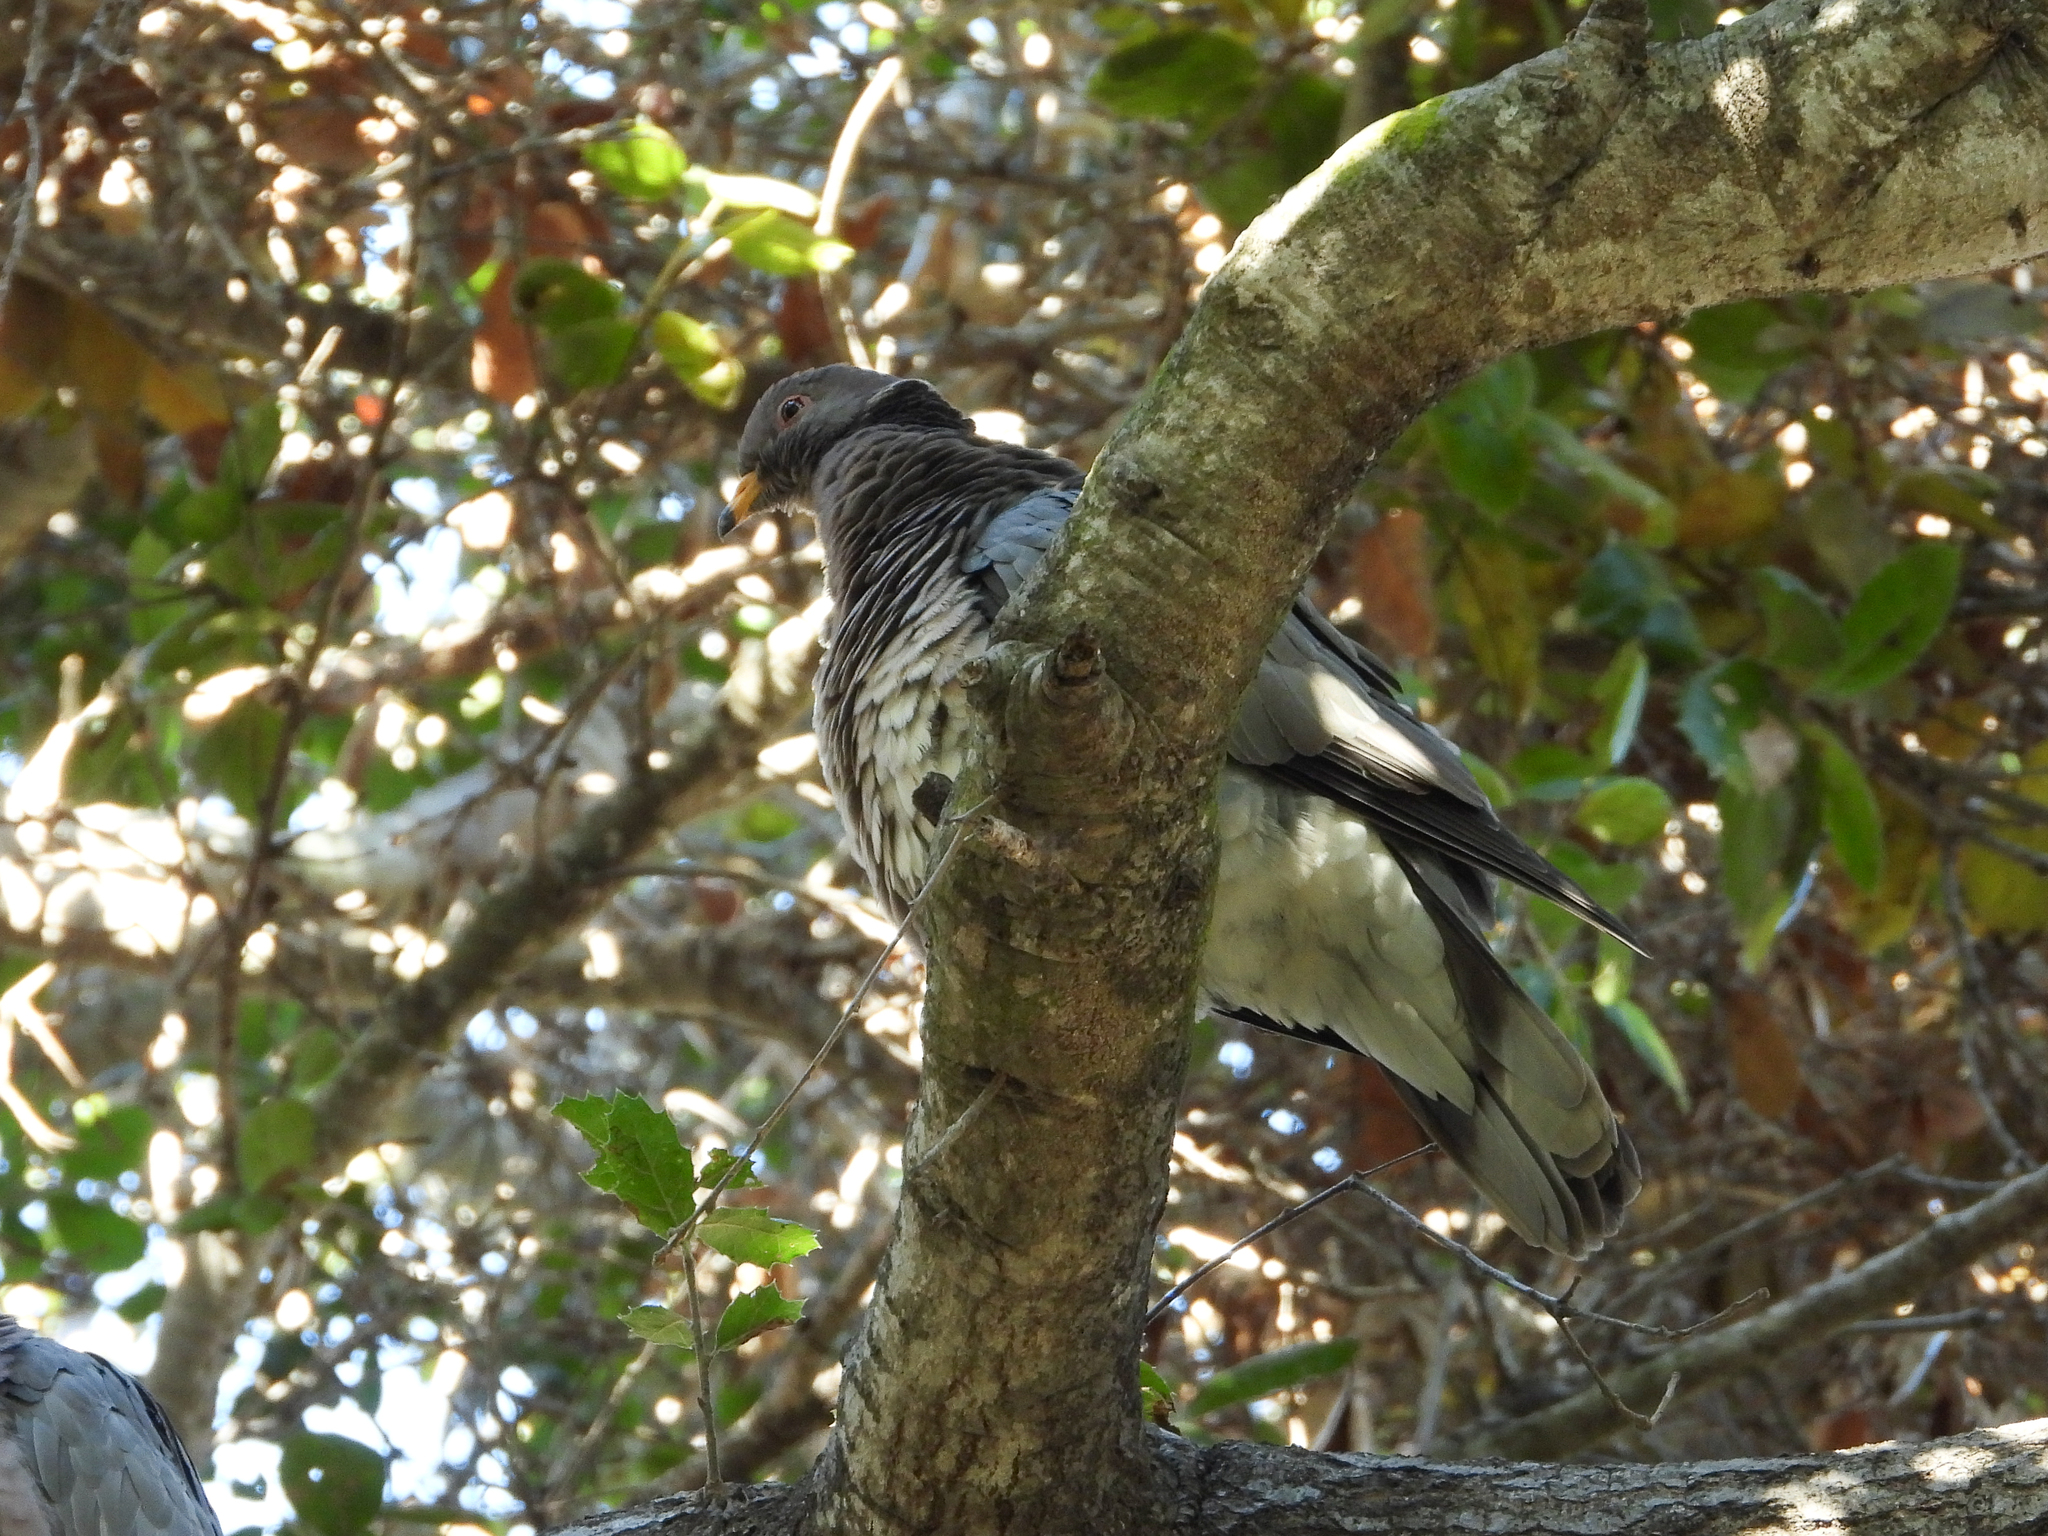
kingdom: Animalia
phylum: Chordata
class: Aves
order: Columbiformes
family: Columbidae
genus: Patagioenas
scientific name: Patagioenas fasciata
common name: Band-tailed pigeon
